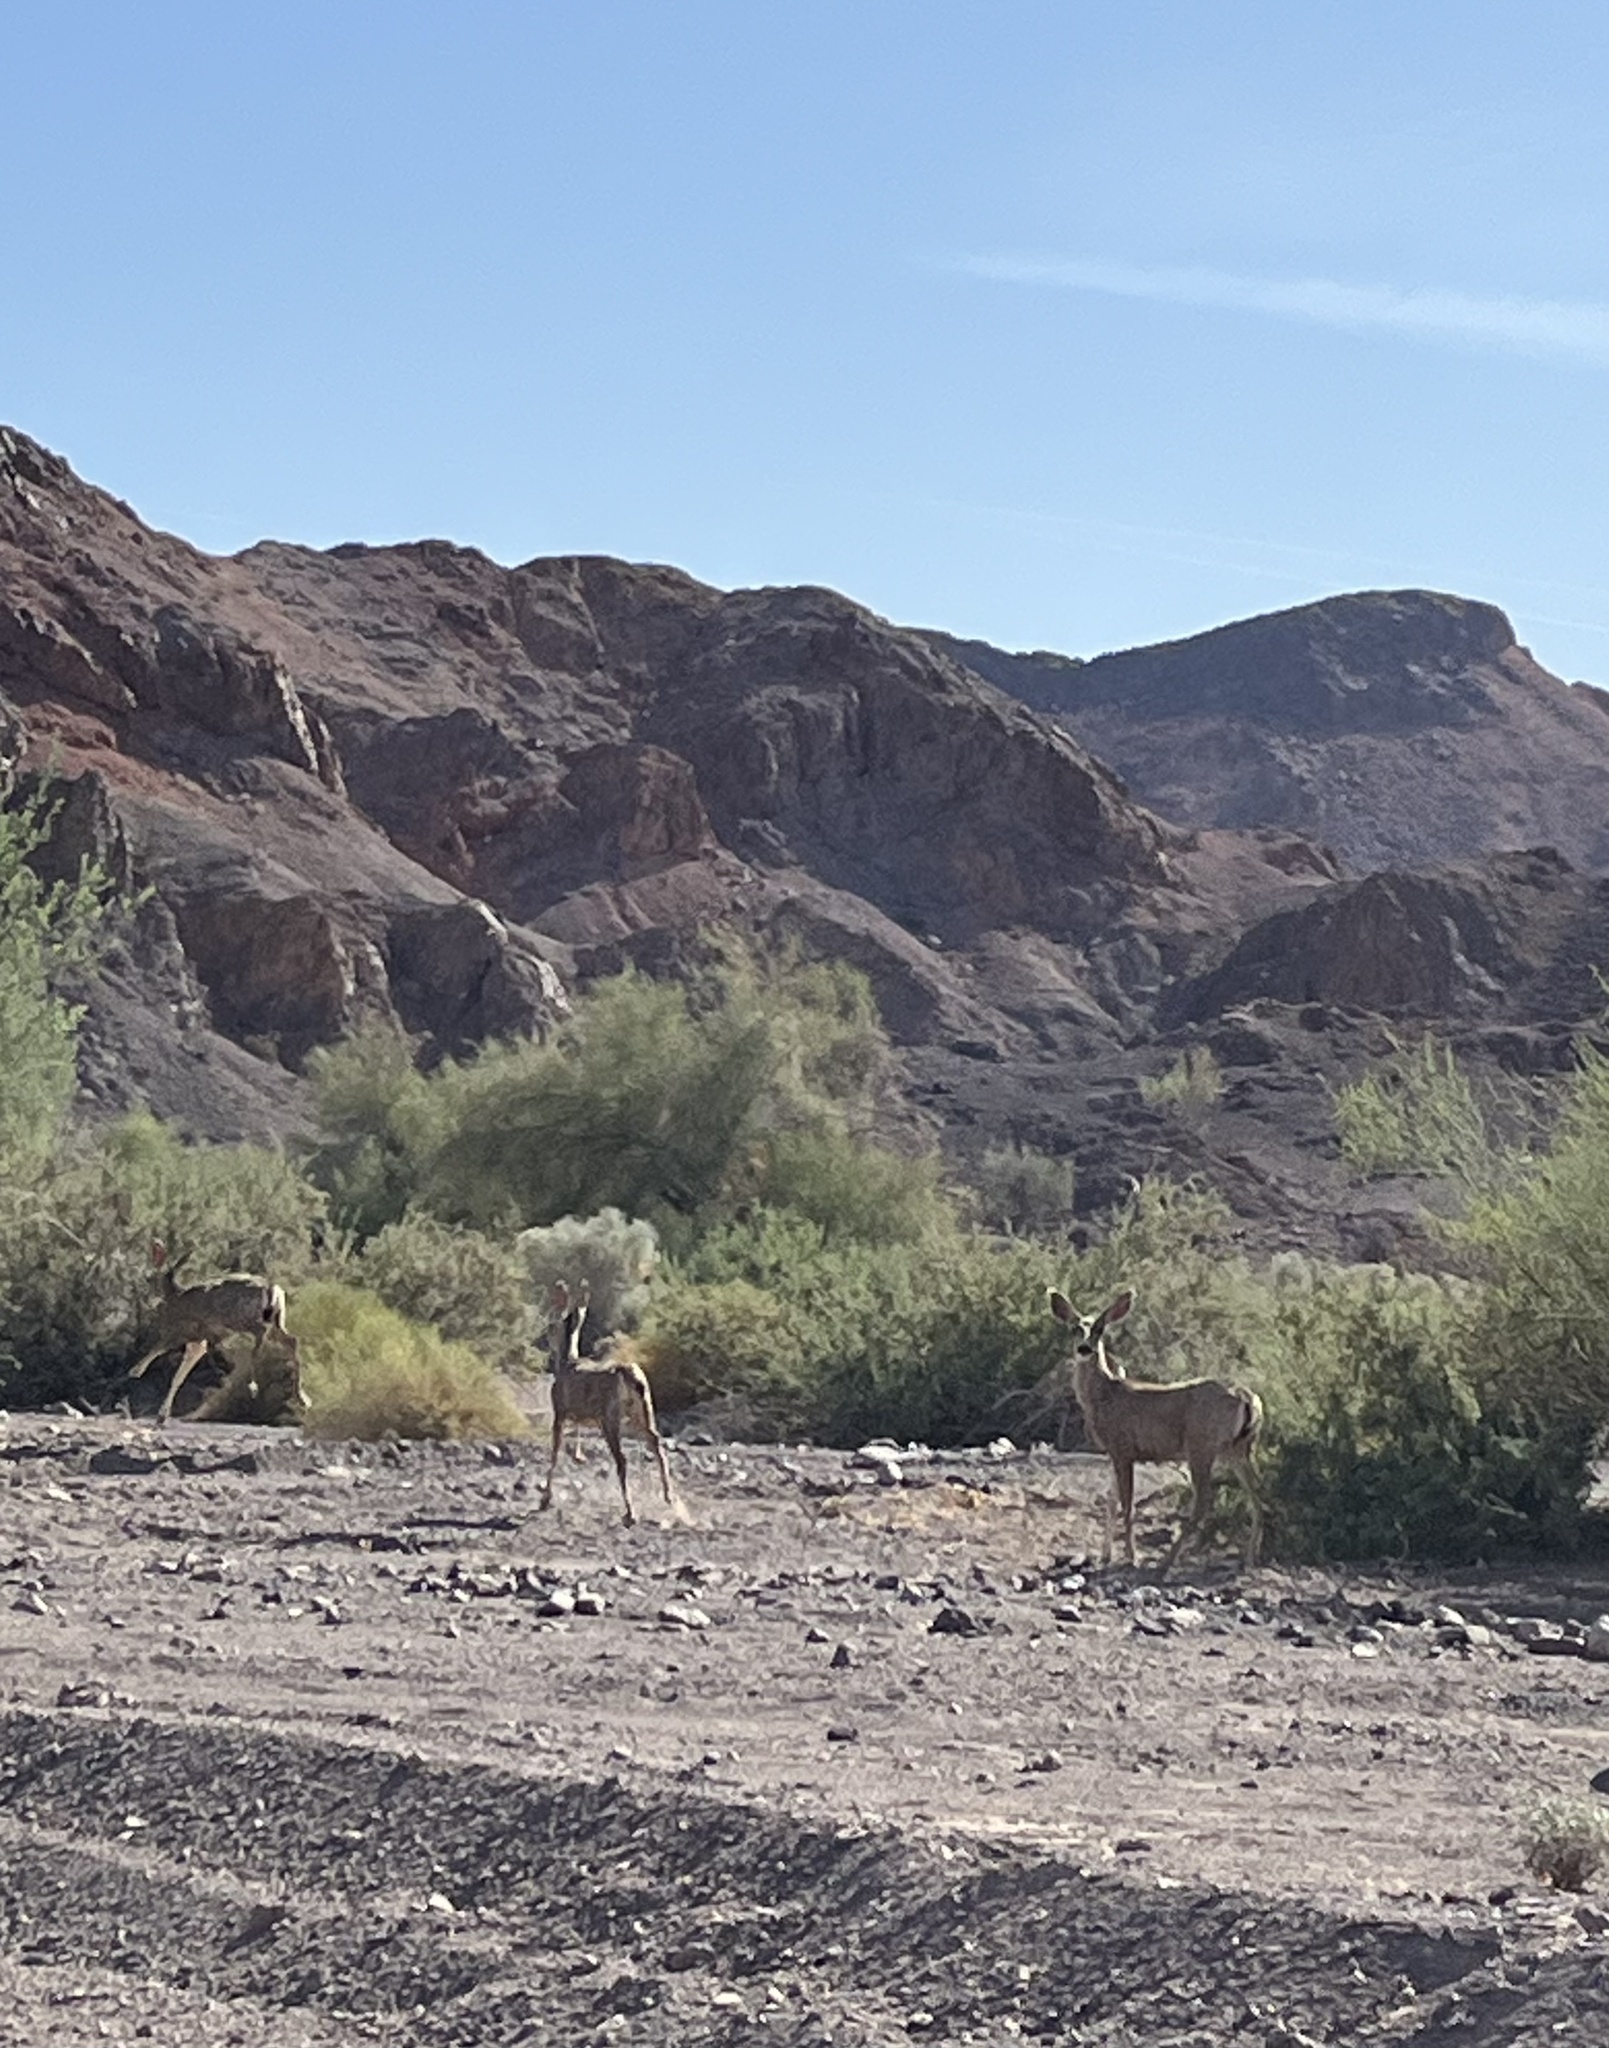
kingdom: Animalia
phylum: Chordata
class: Mammalia
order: Artiodactyla
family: Cervidae
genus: Odocoileus
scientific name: Odocoileus hemionus
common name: Mule deer
